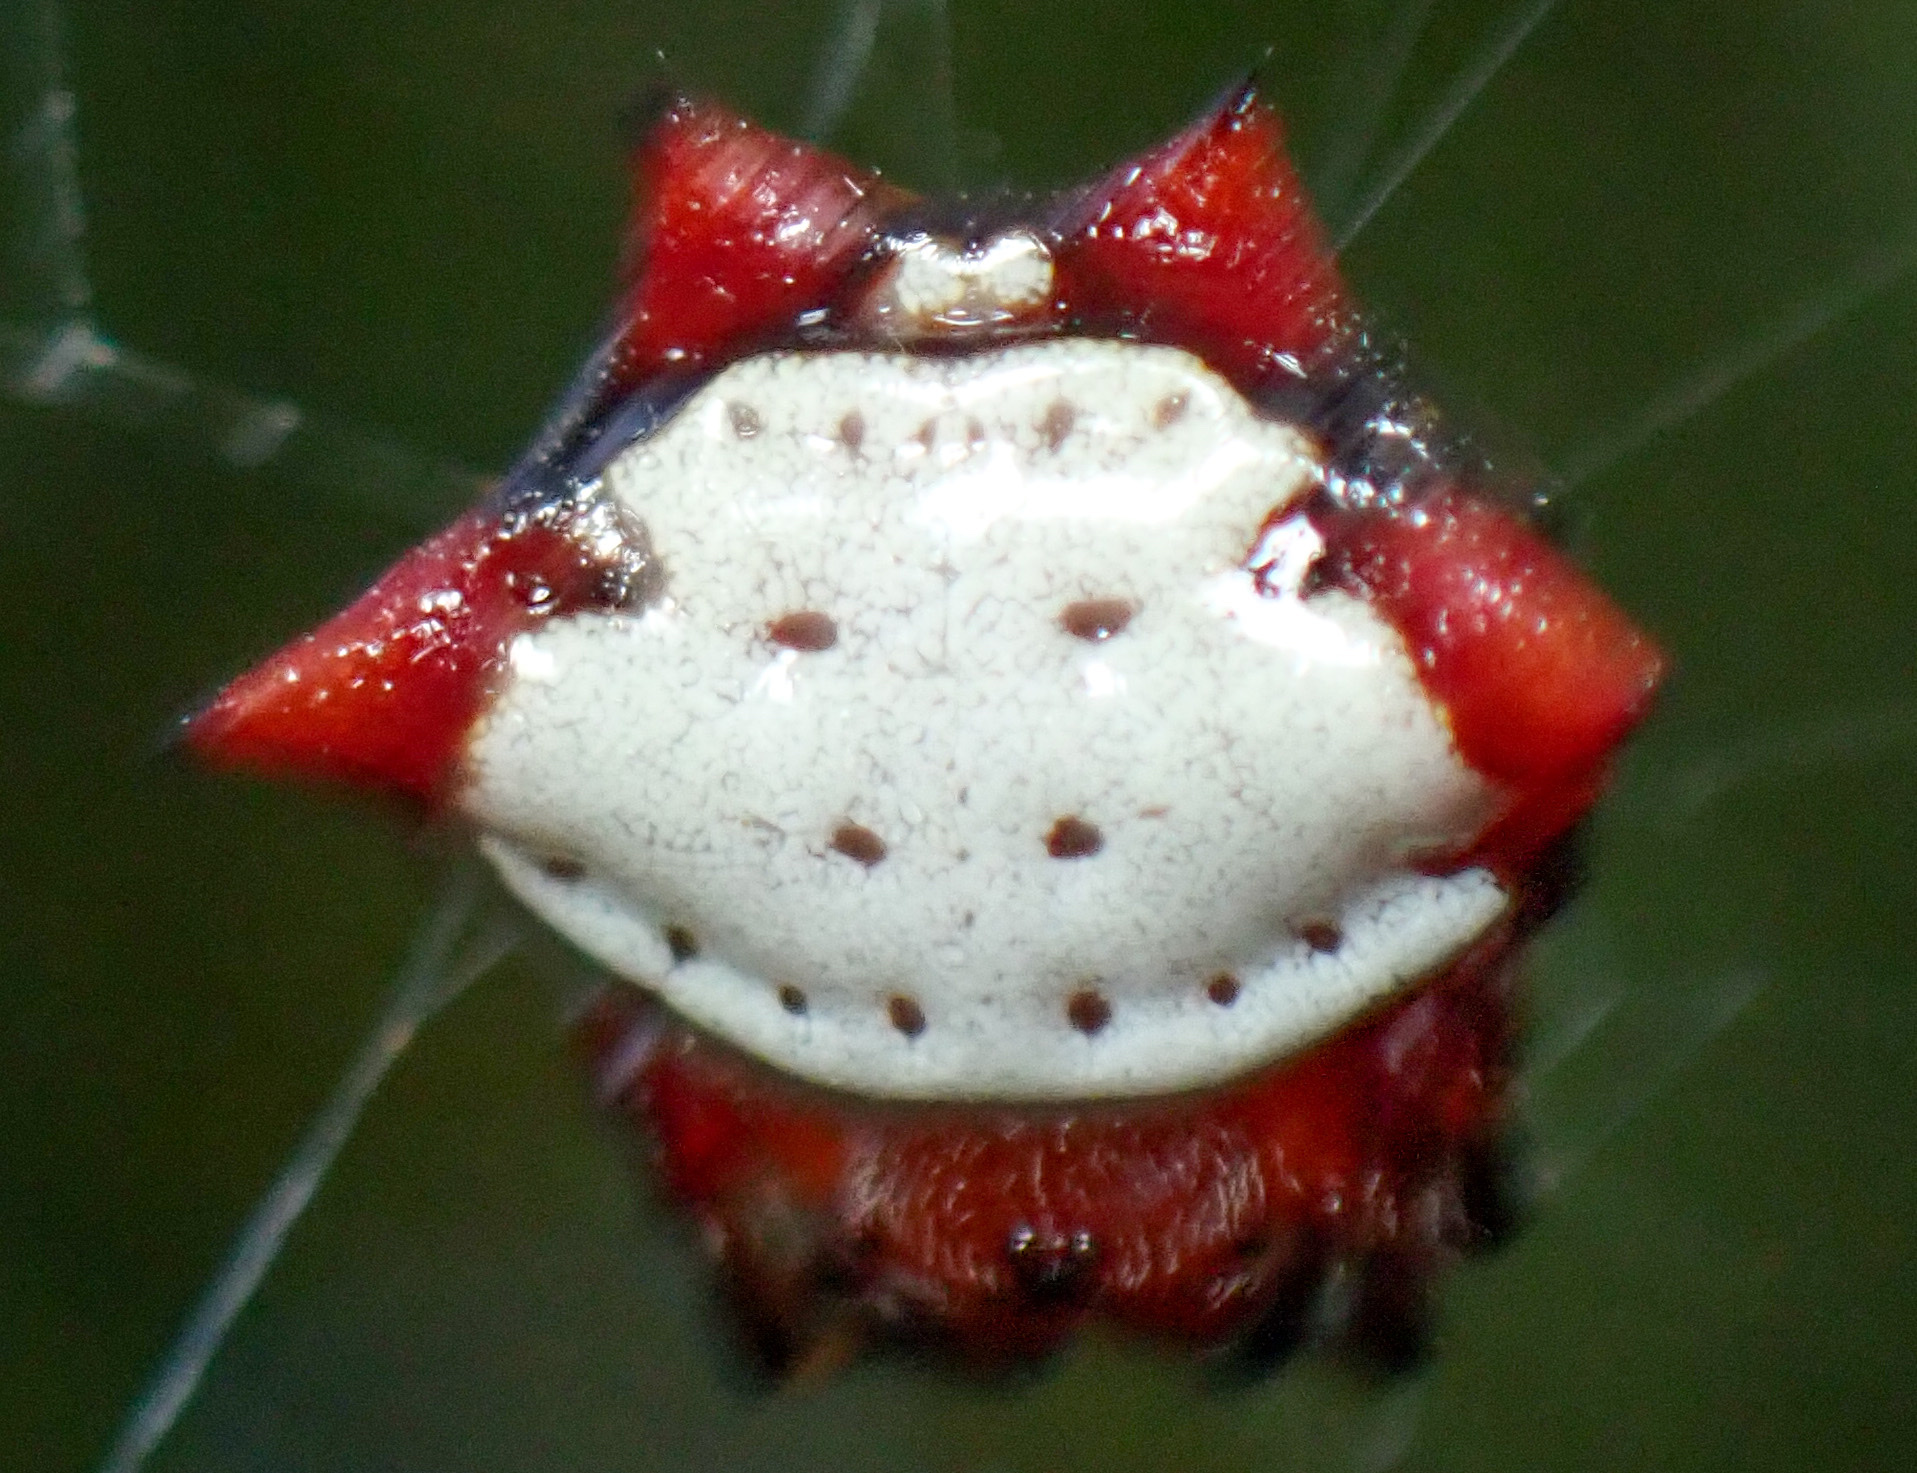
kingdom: Animalia
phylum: Arthropoda
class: Arachnida
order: Araneae
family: Araneidae
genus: Gasteracantha
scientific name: Gasteracantha cancriformis
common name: Orb weavers
